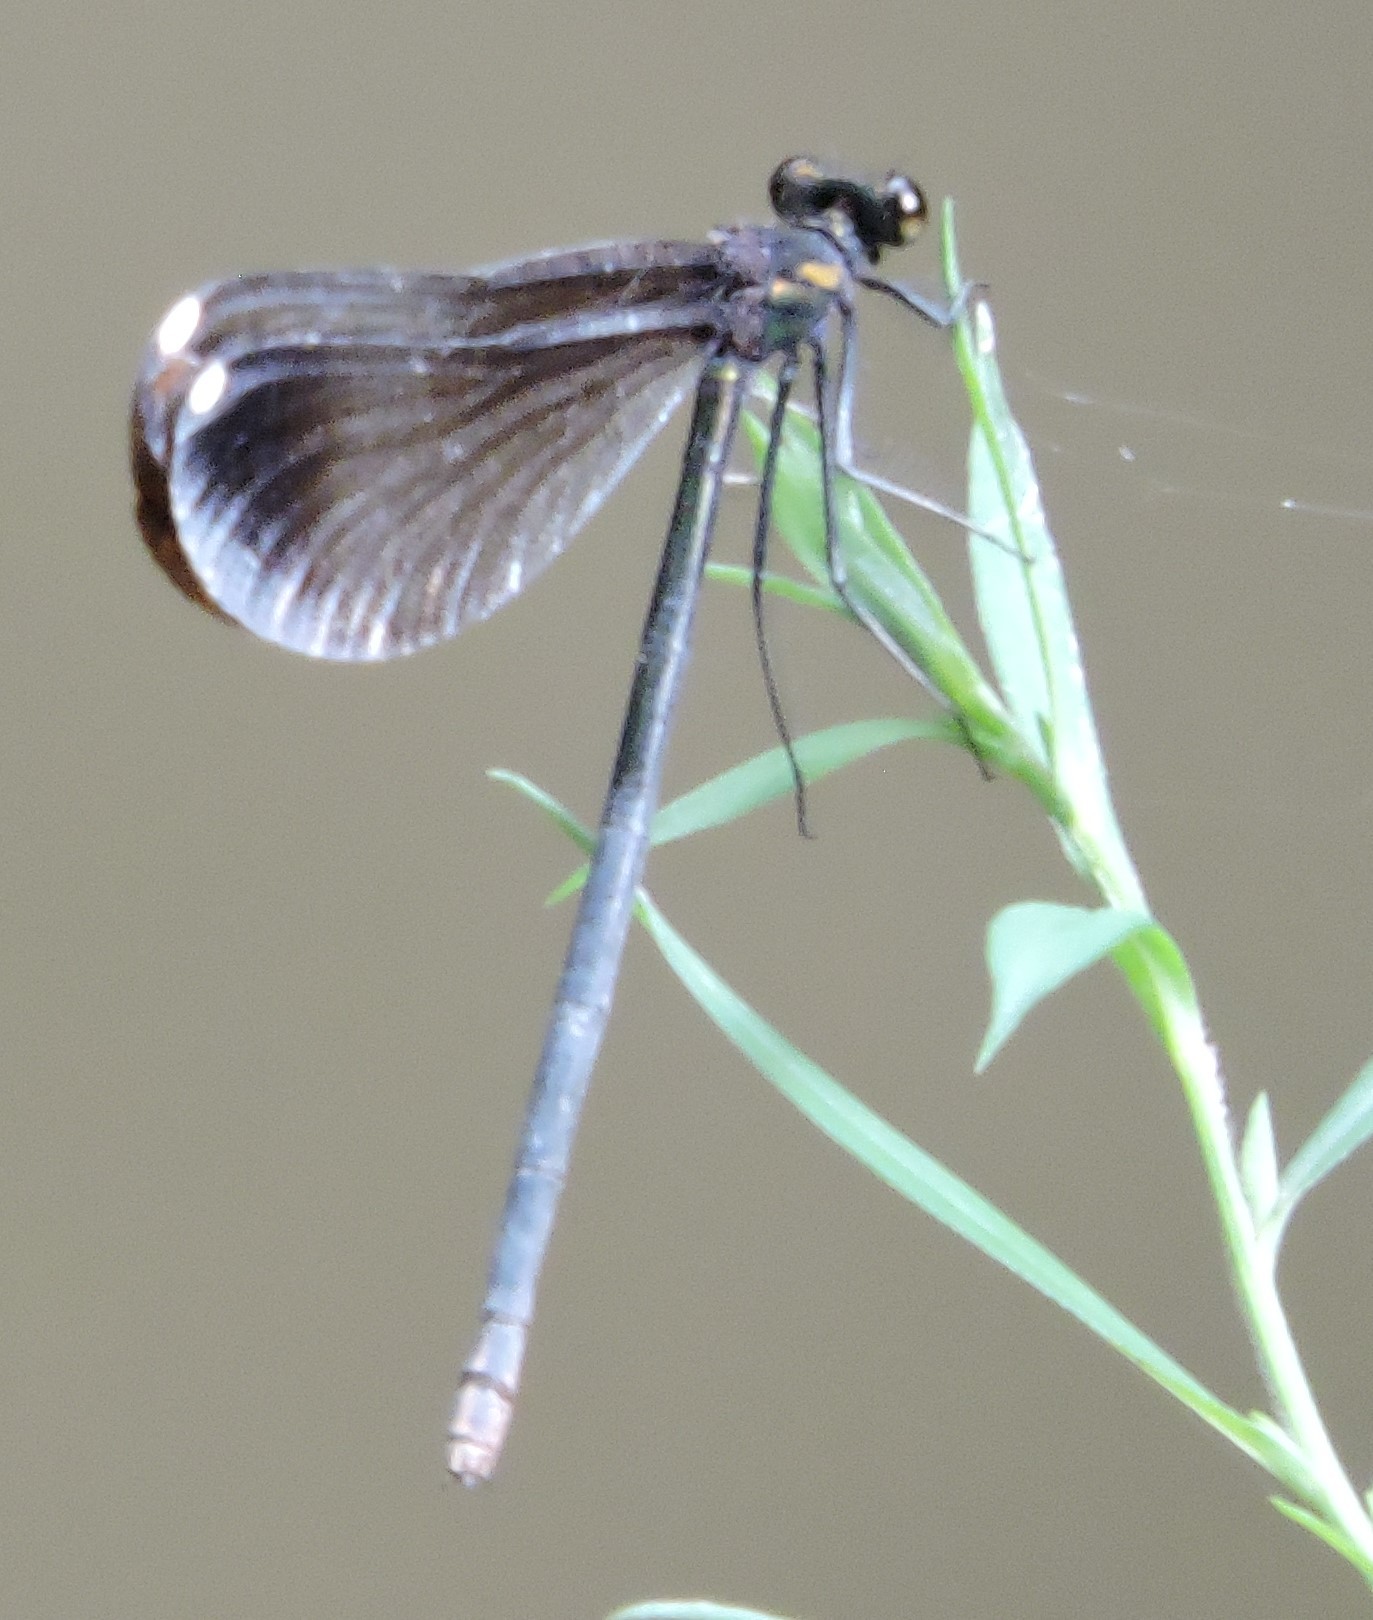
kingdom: Animalia
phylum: Arthropoda
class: Insecta
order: Odonata
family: Calopterygidae
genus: Calopteryx
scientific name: Calopteryx maculata
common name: Ebony jewelwing
